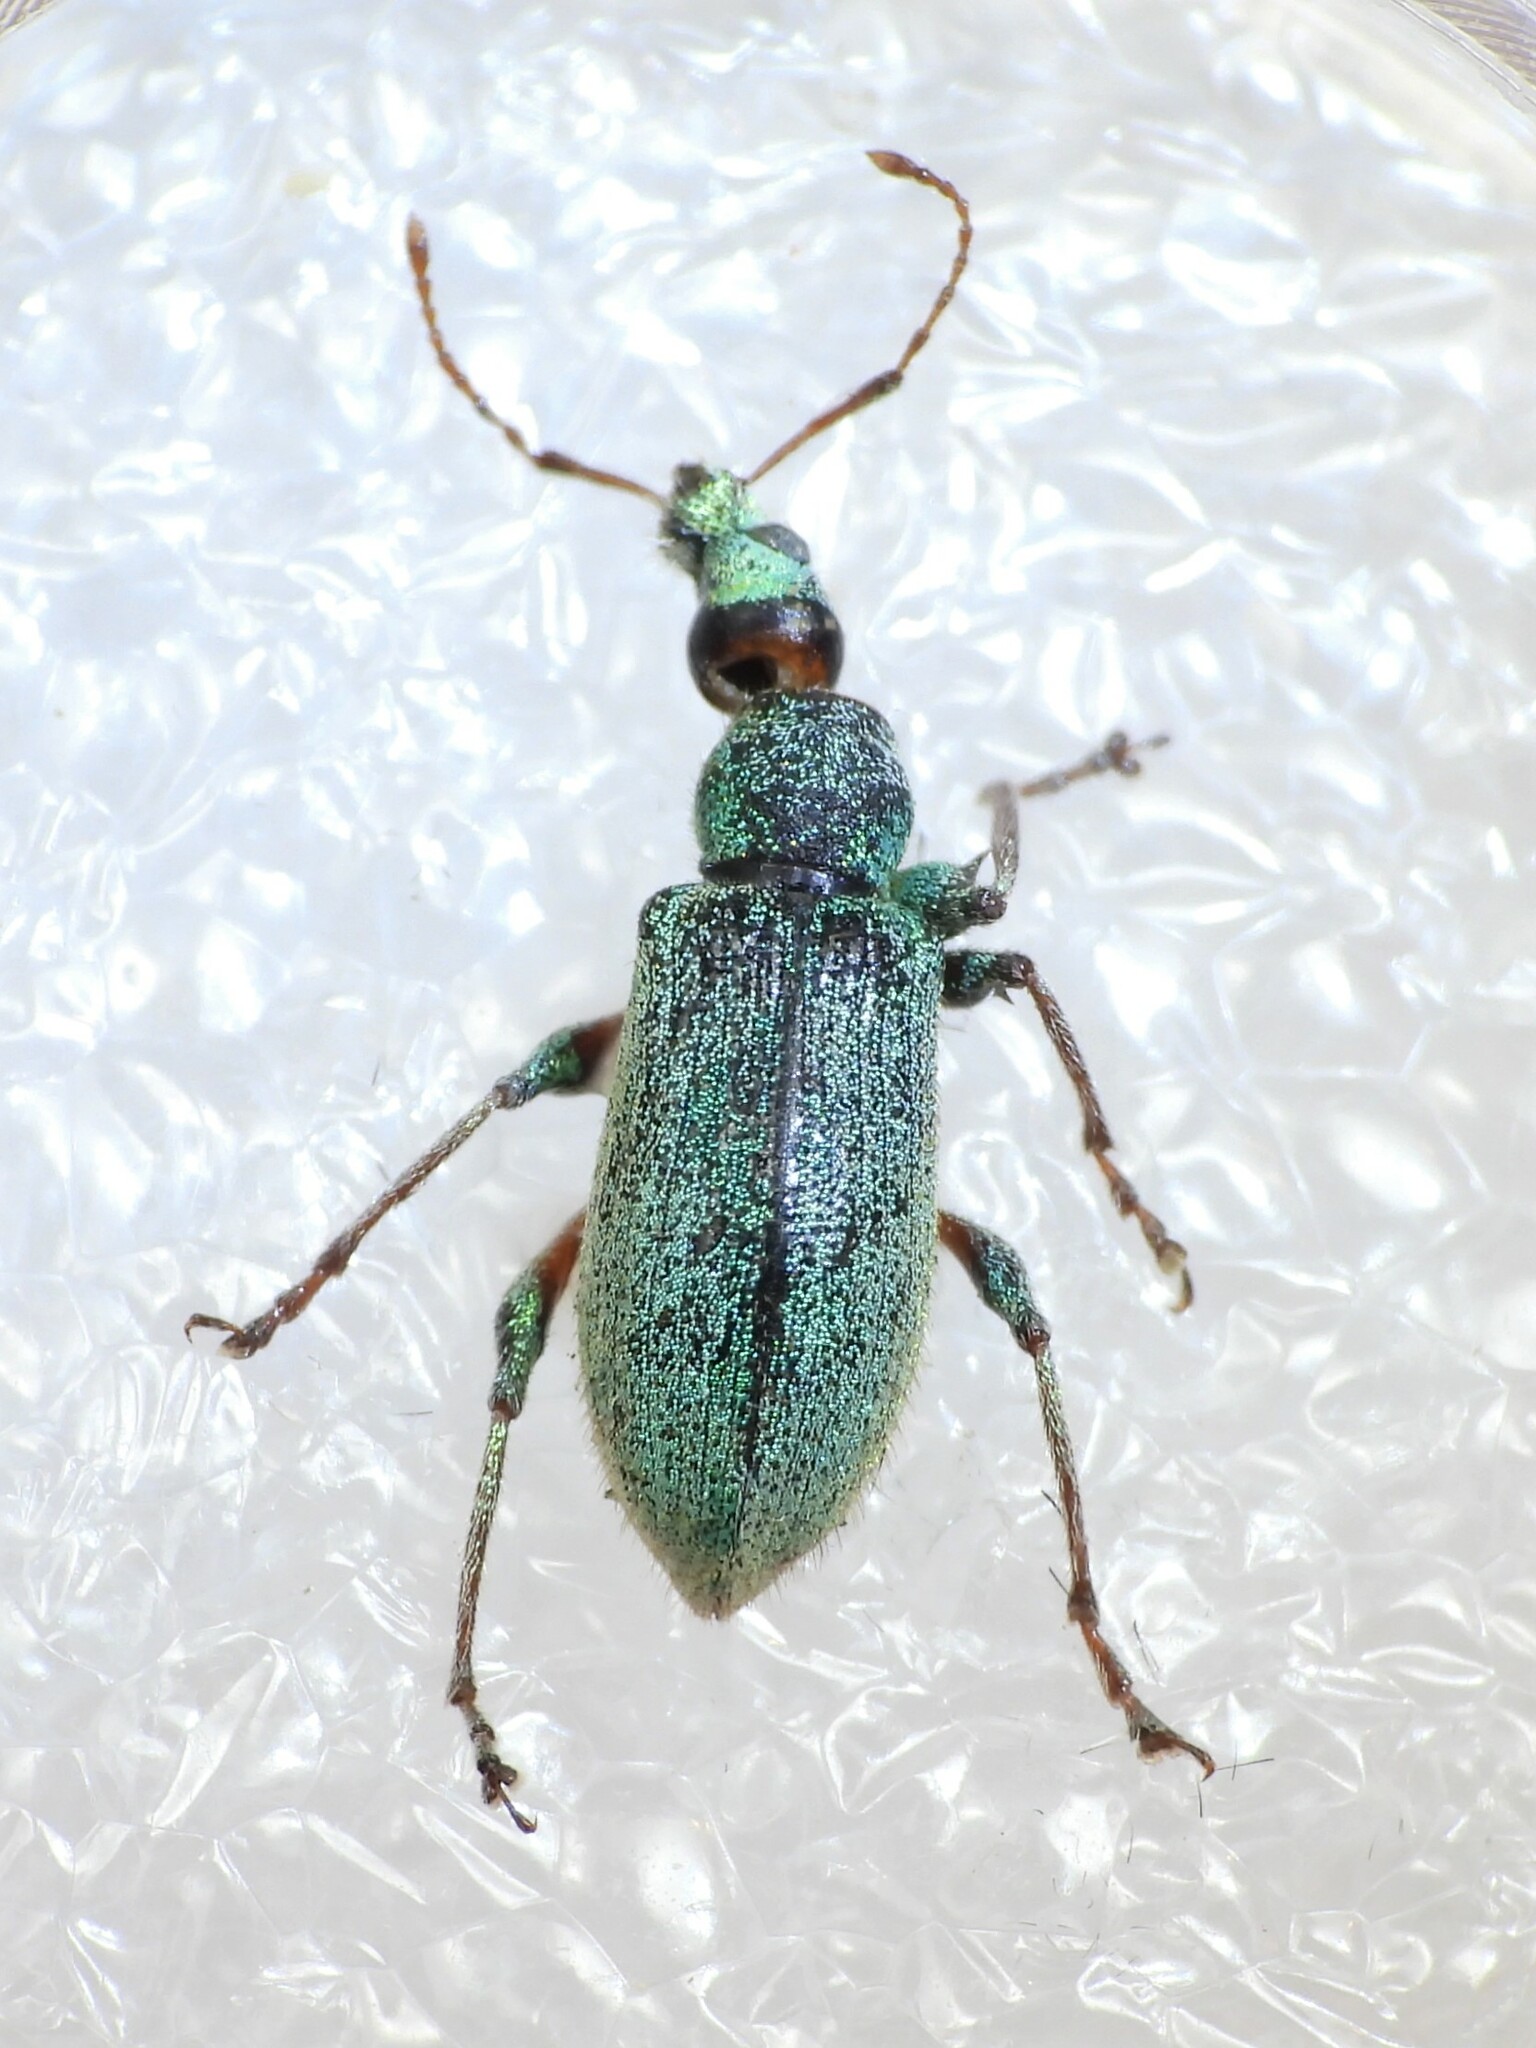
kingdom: Animalia
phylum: Arthropoda
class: Insecta
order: Coleoptera
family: Curculionidae
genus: Phyllobius
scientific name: Phyllobius arborator
